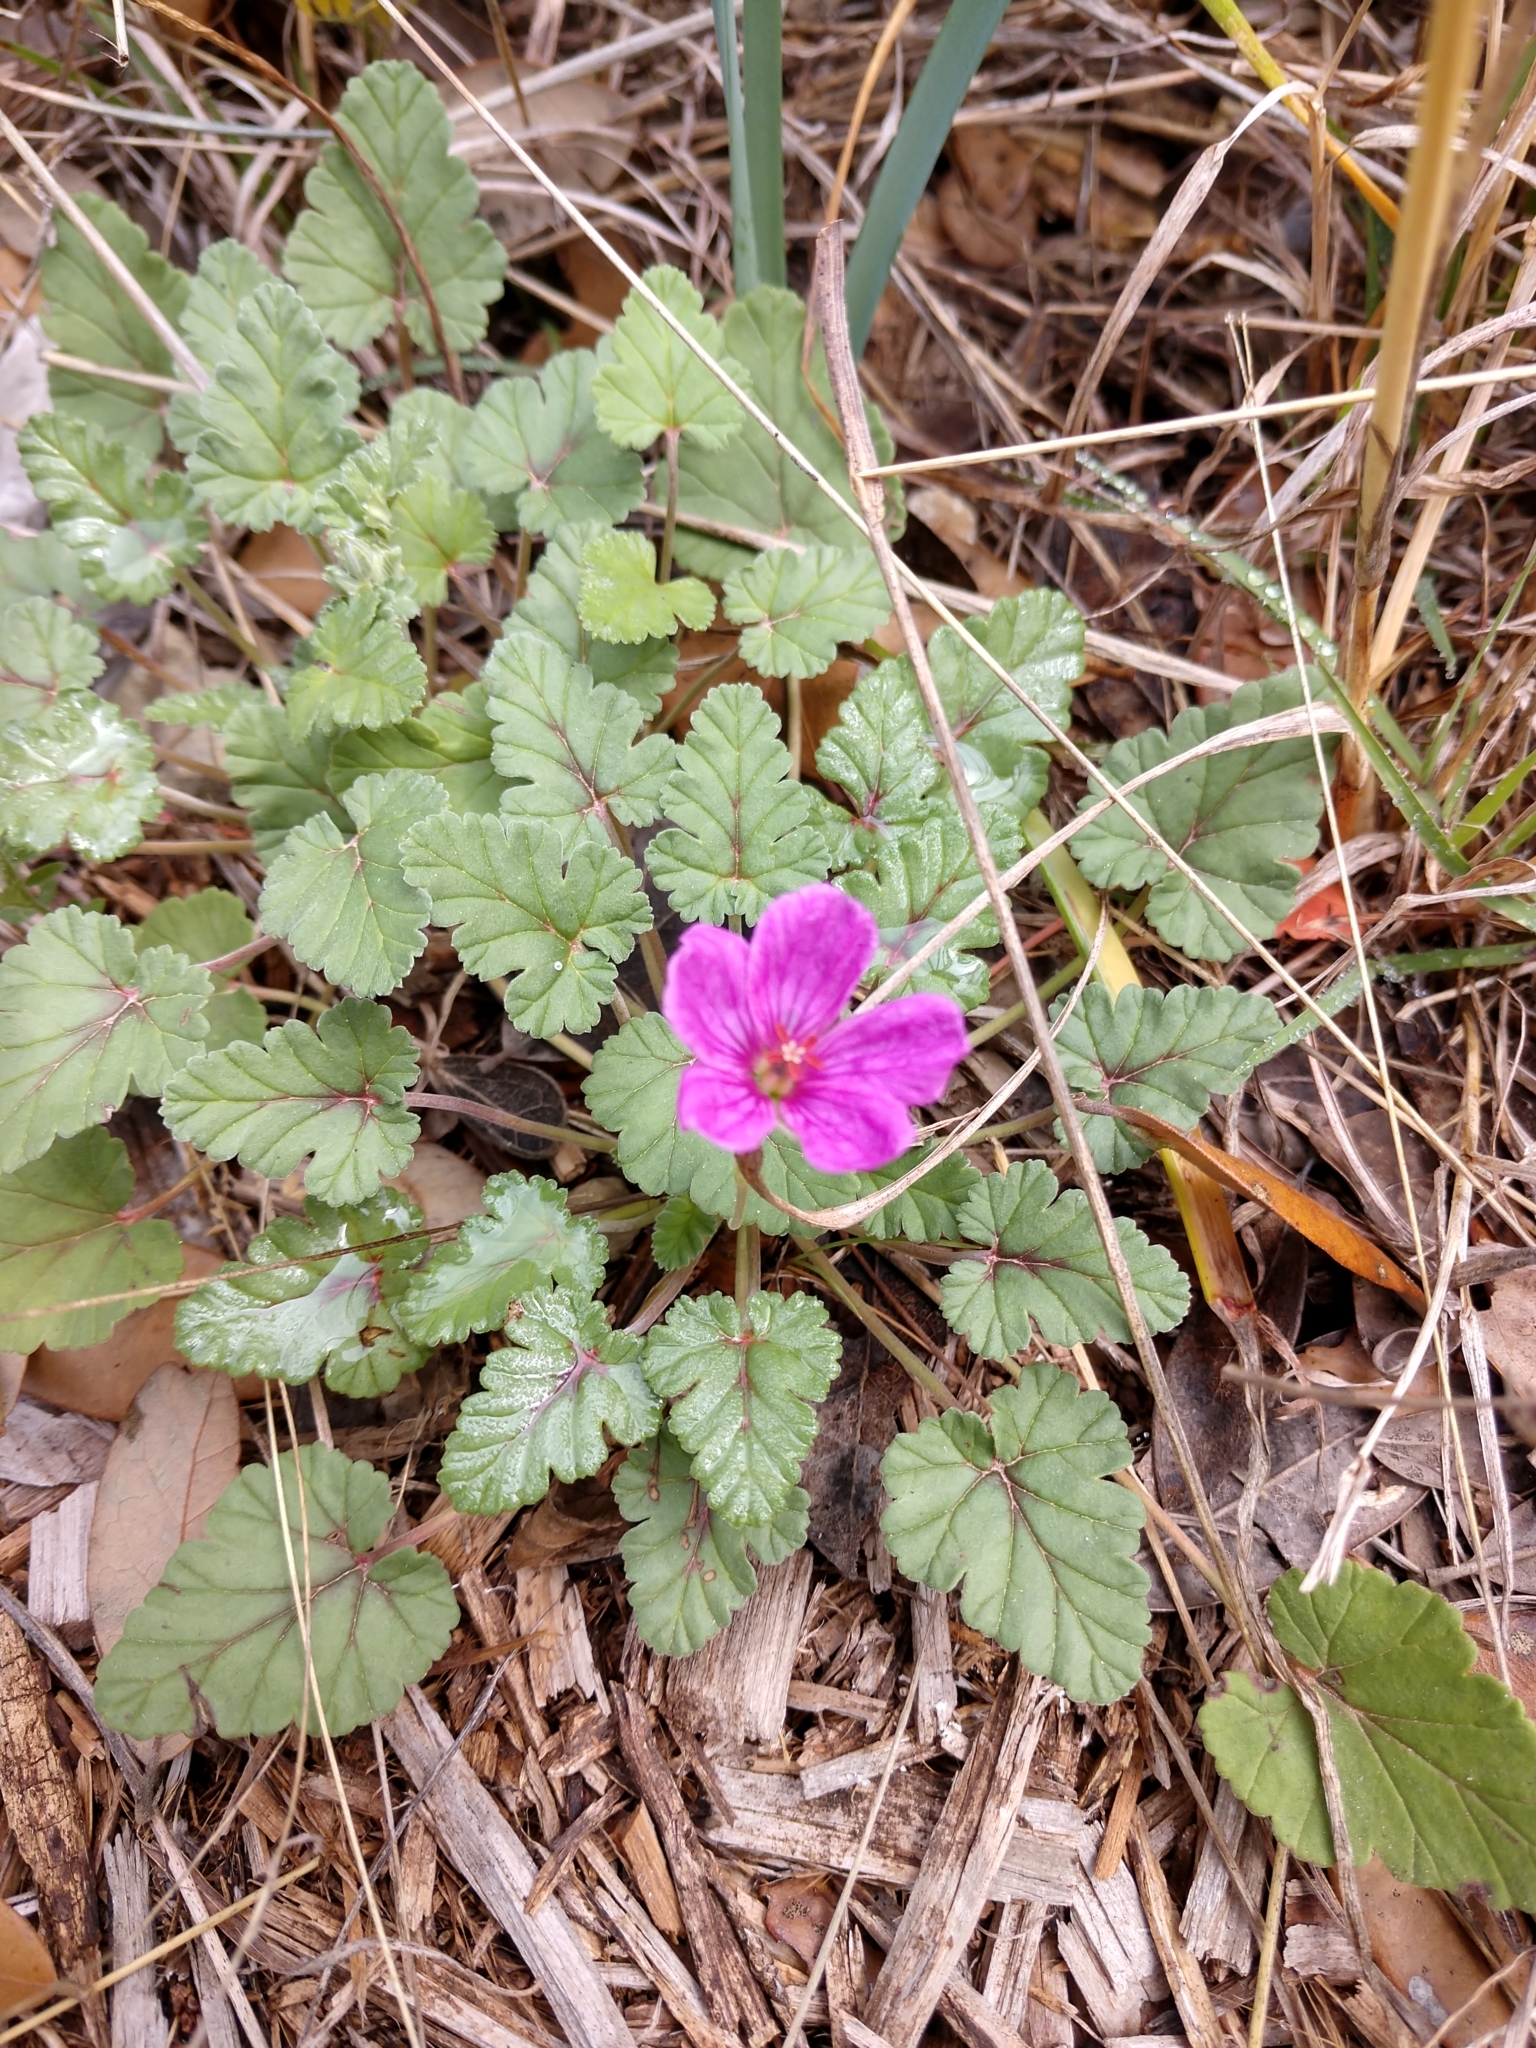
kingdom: Plantae
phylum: Tracheophyta
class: Magnoliopsida
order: Geraniales
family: Geraniaceae
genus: Erodium
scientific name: Erodium texanum
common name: Texas stork's-bill
